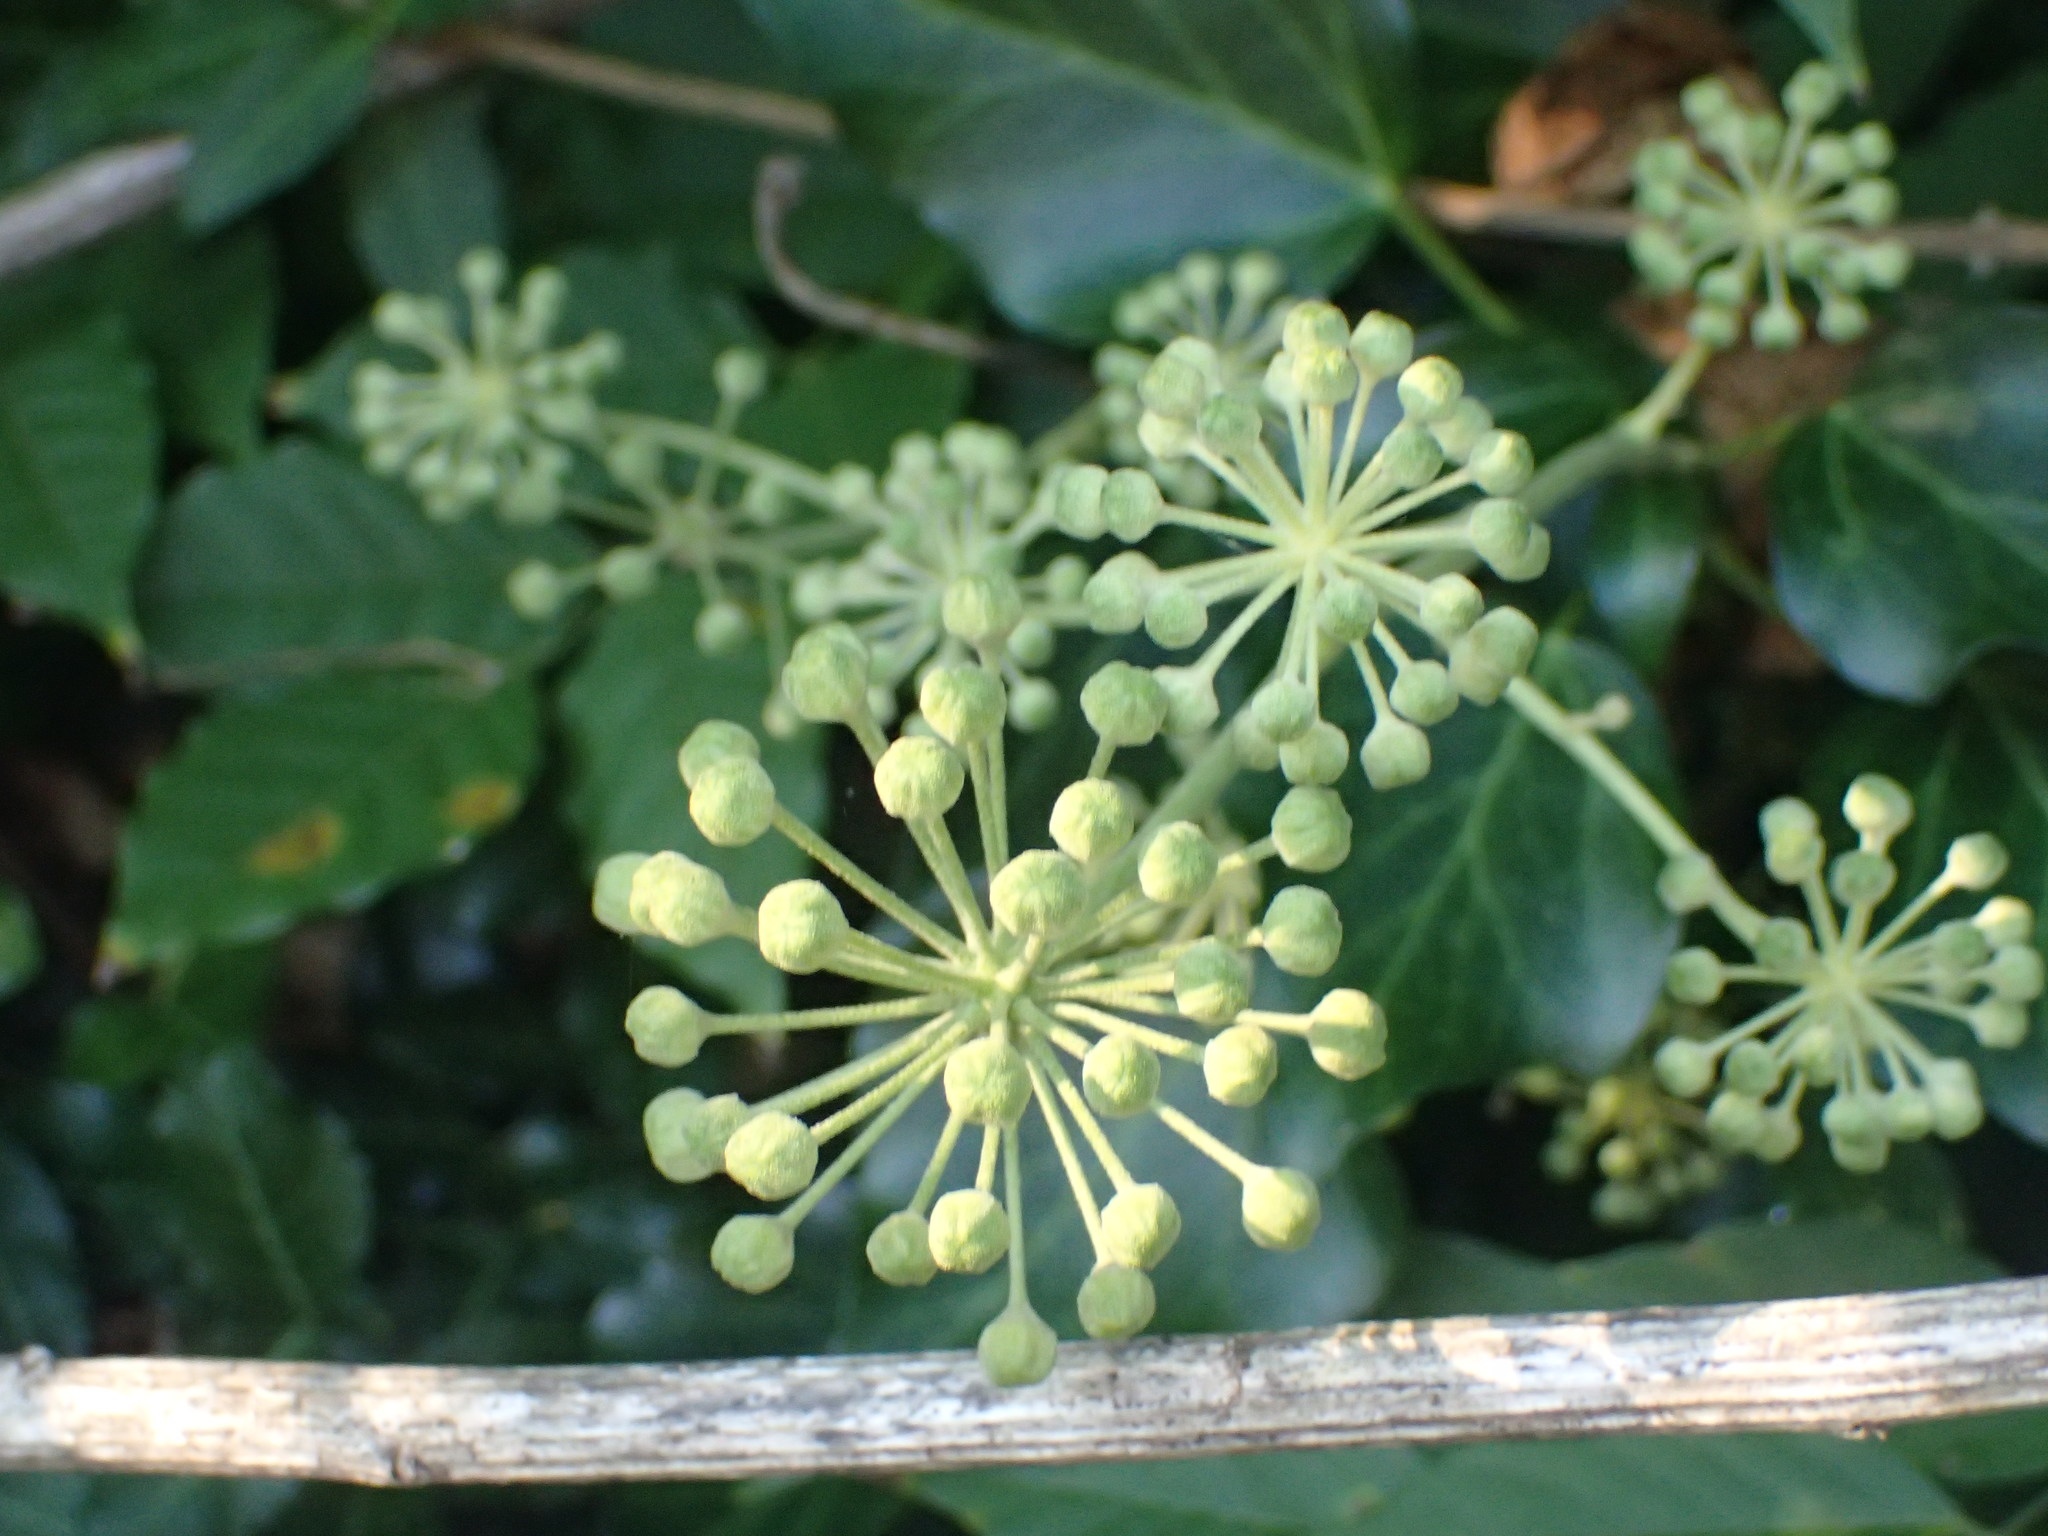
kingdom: Plantae
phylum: Tracheophyta
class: Magnoliopsida
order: Apiales
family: Araliaceae
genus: Hedera
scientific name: Hedera helix
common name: Ivy
